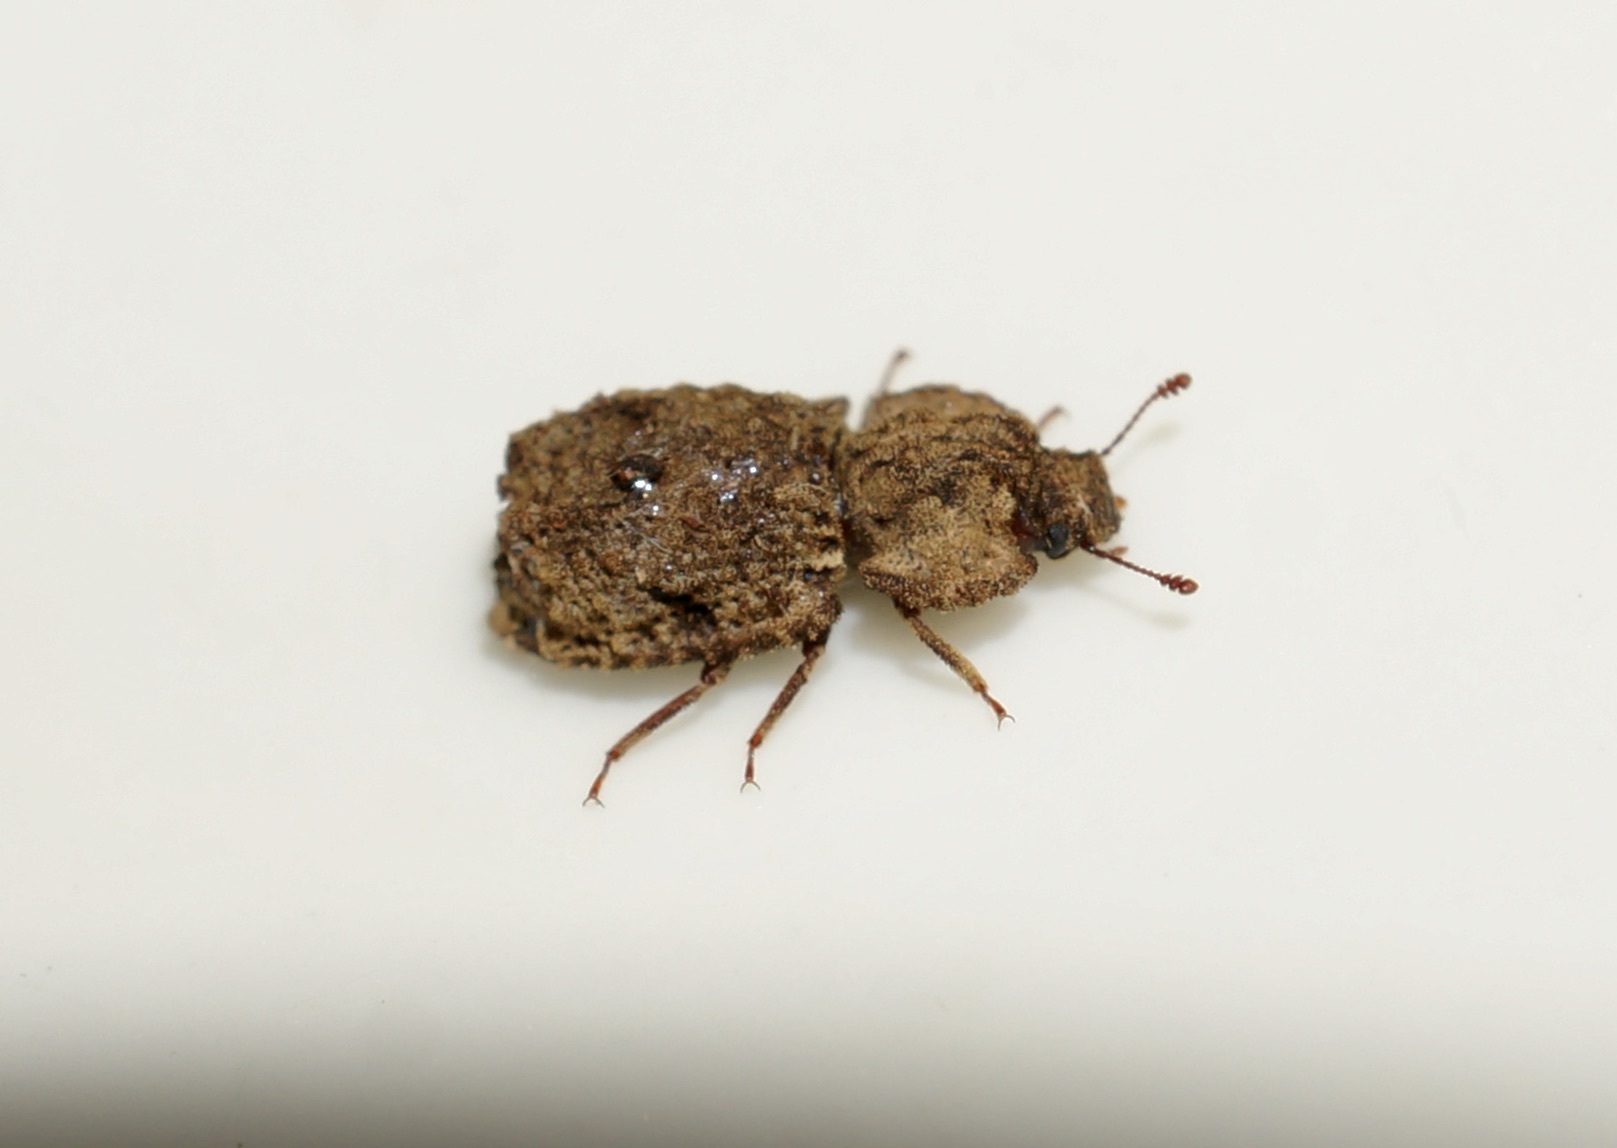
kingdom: Animalia
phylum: Arthropoda
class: Insecta
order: Coleoptera
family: Zopheridae
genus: Pristoderus
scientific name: Pristoderus
